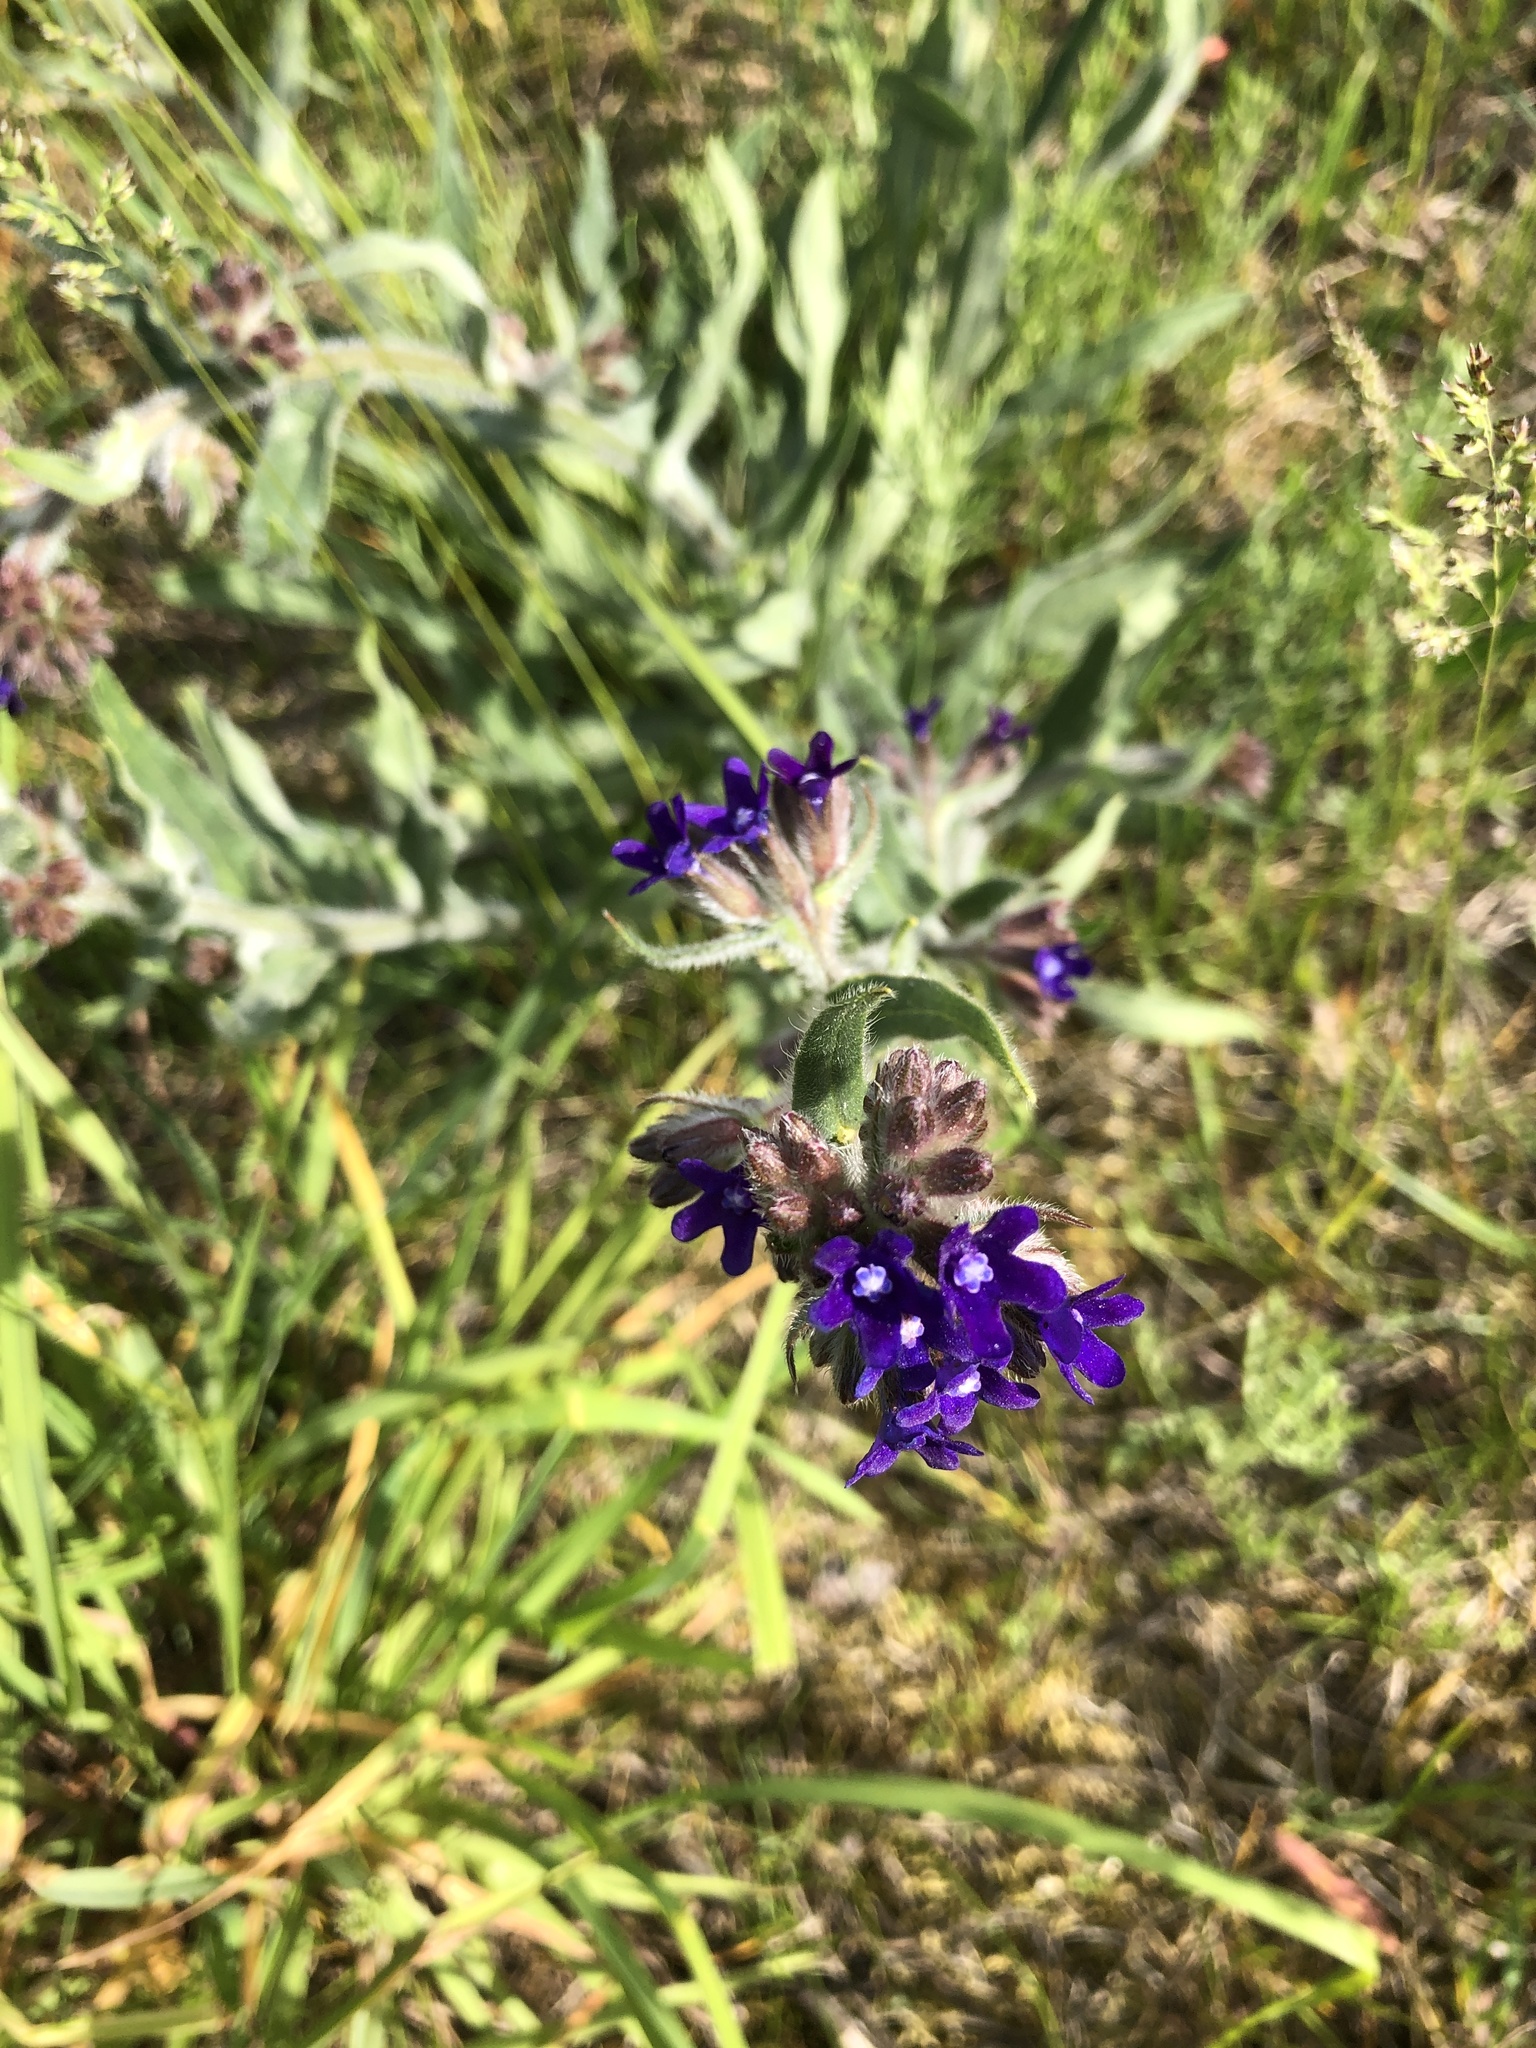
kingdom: Plantae
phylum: Tracheophyta
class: Magnoliopsida
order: Boraginales
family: Boraginaceae
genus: Anchusa
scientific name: Anchusa officinalis
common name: Alkanet
